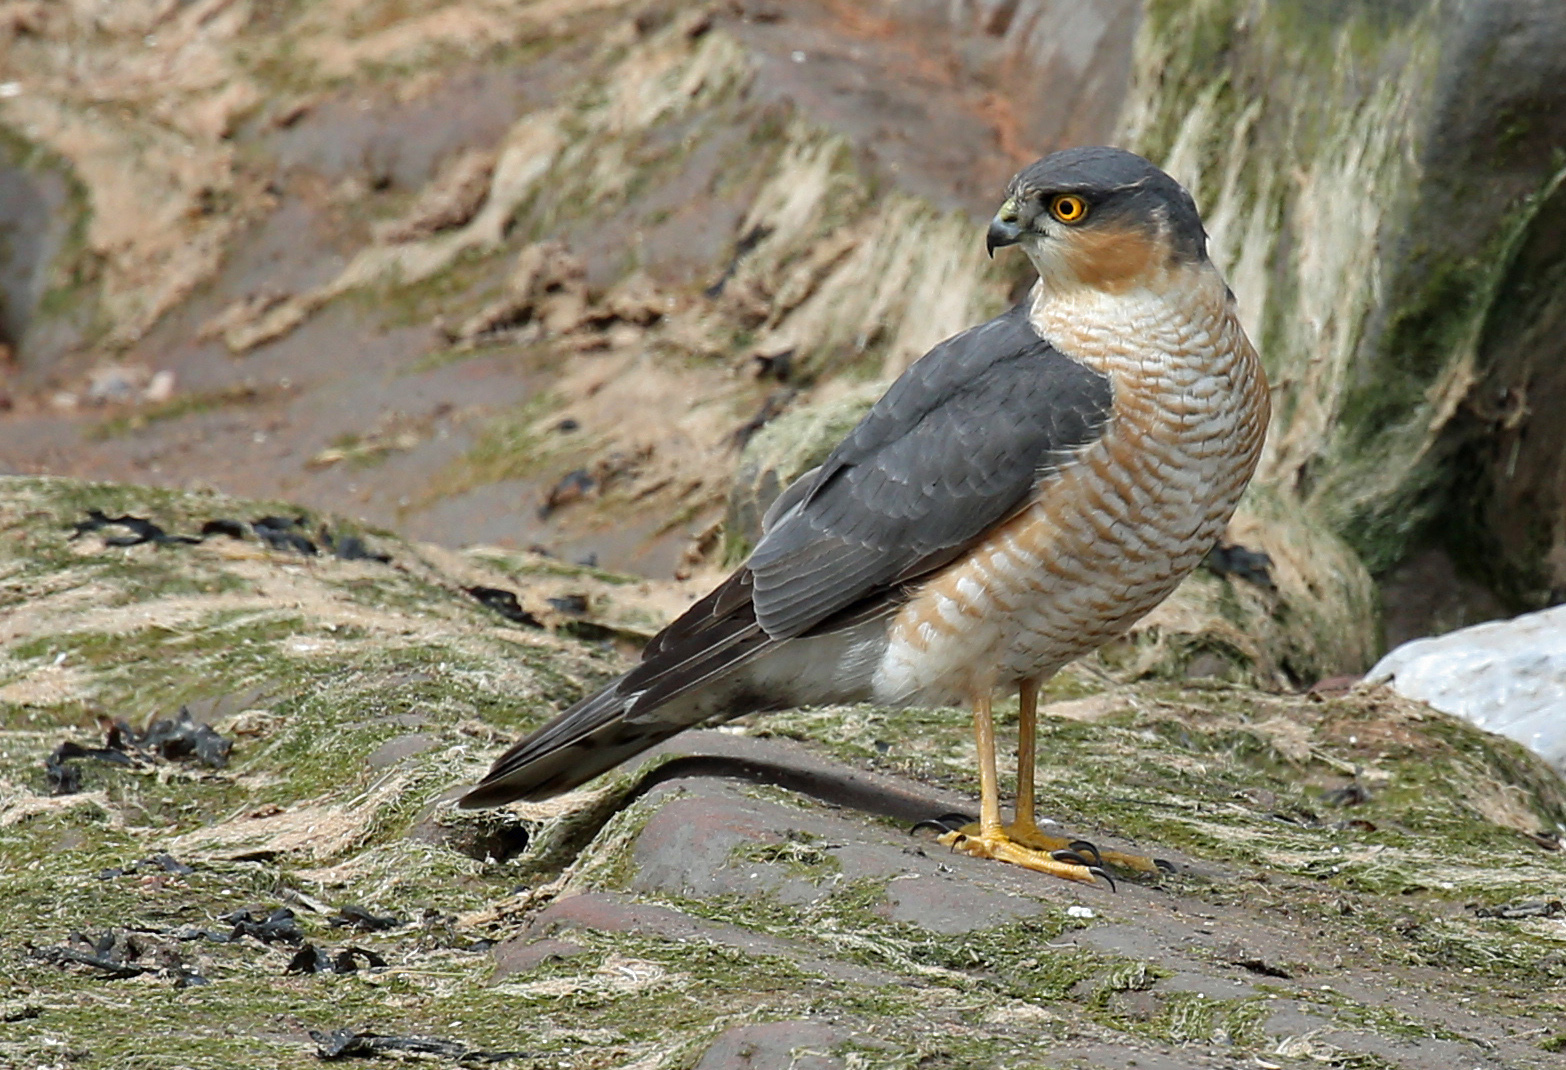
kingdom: Animalia
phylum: Chordata
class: Aves
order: Accipitriformes
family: Accipitridae
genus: Accipiter
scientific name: Accipiter nisus
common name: Eurasian sparrowhawk
